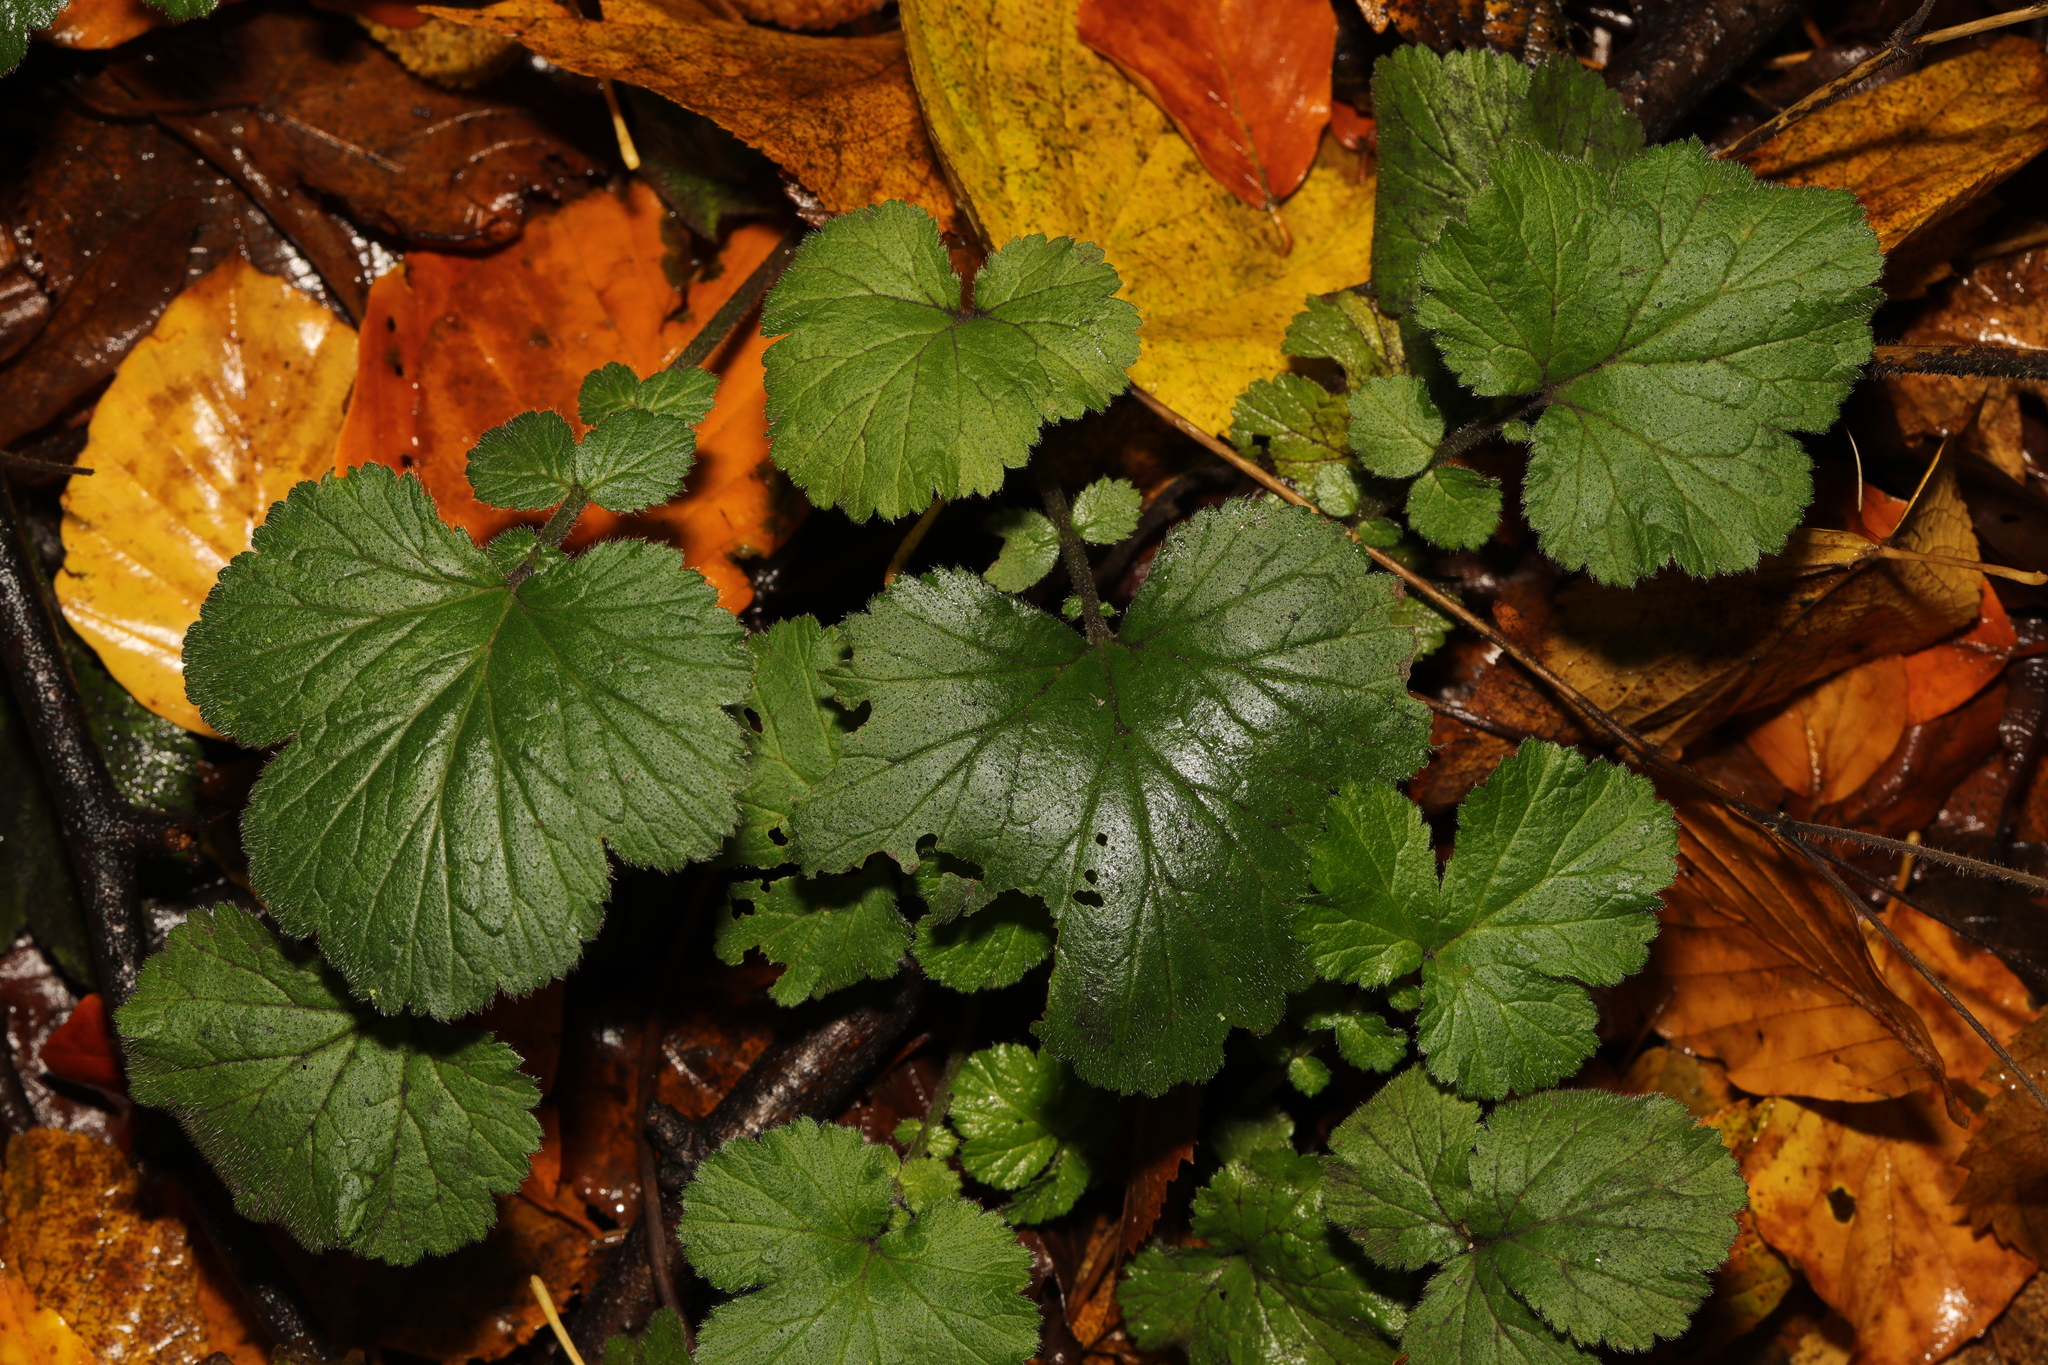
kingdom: Plantae
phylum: Tracheophyta
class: Magnoliopsida
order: Rosales
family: Rosaceae
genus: Geum
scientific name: Geum urbanum
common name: Wood avens
